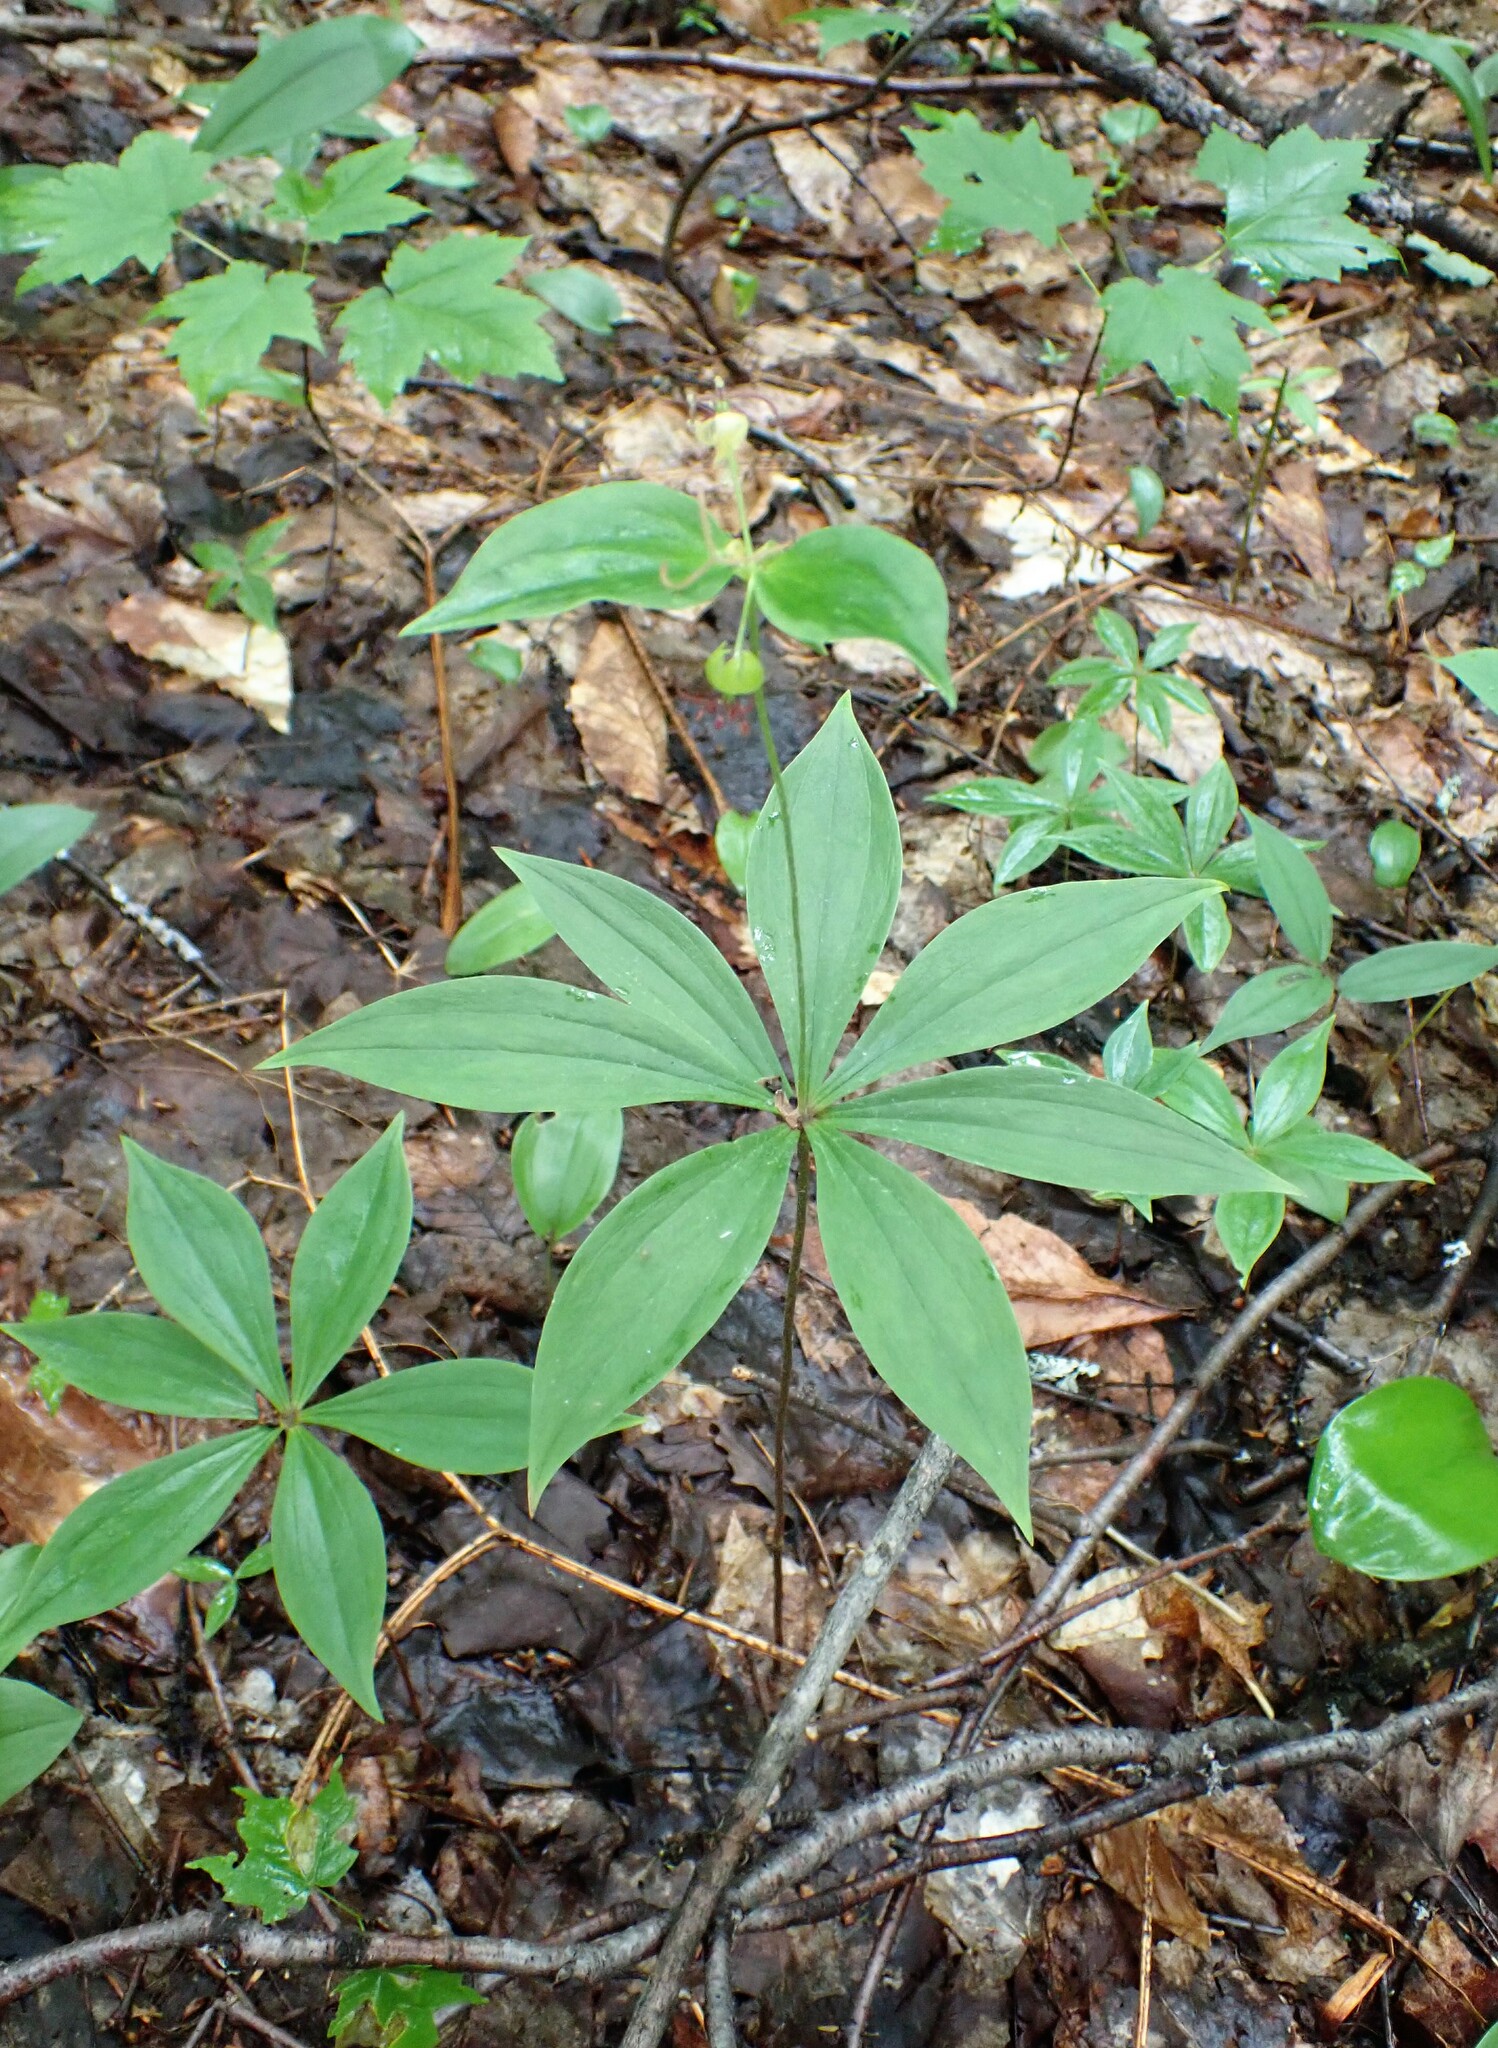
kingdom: Plantae
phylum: Tracheophyta
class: Liliopsida
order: Liliales
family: Liliaceae
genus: Medeola
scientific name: Medeola virginiana
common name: Indian cucumber-root
